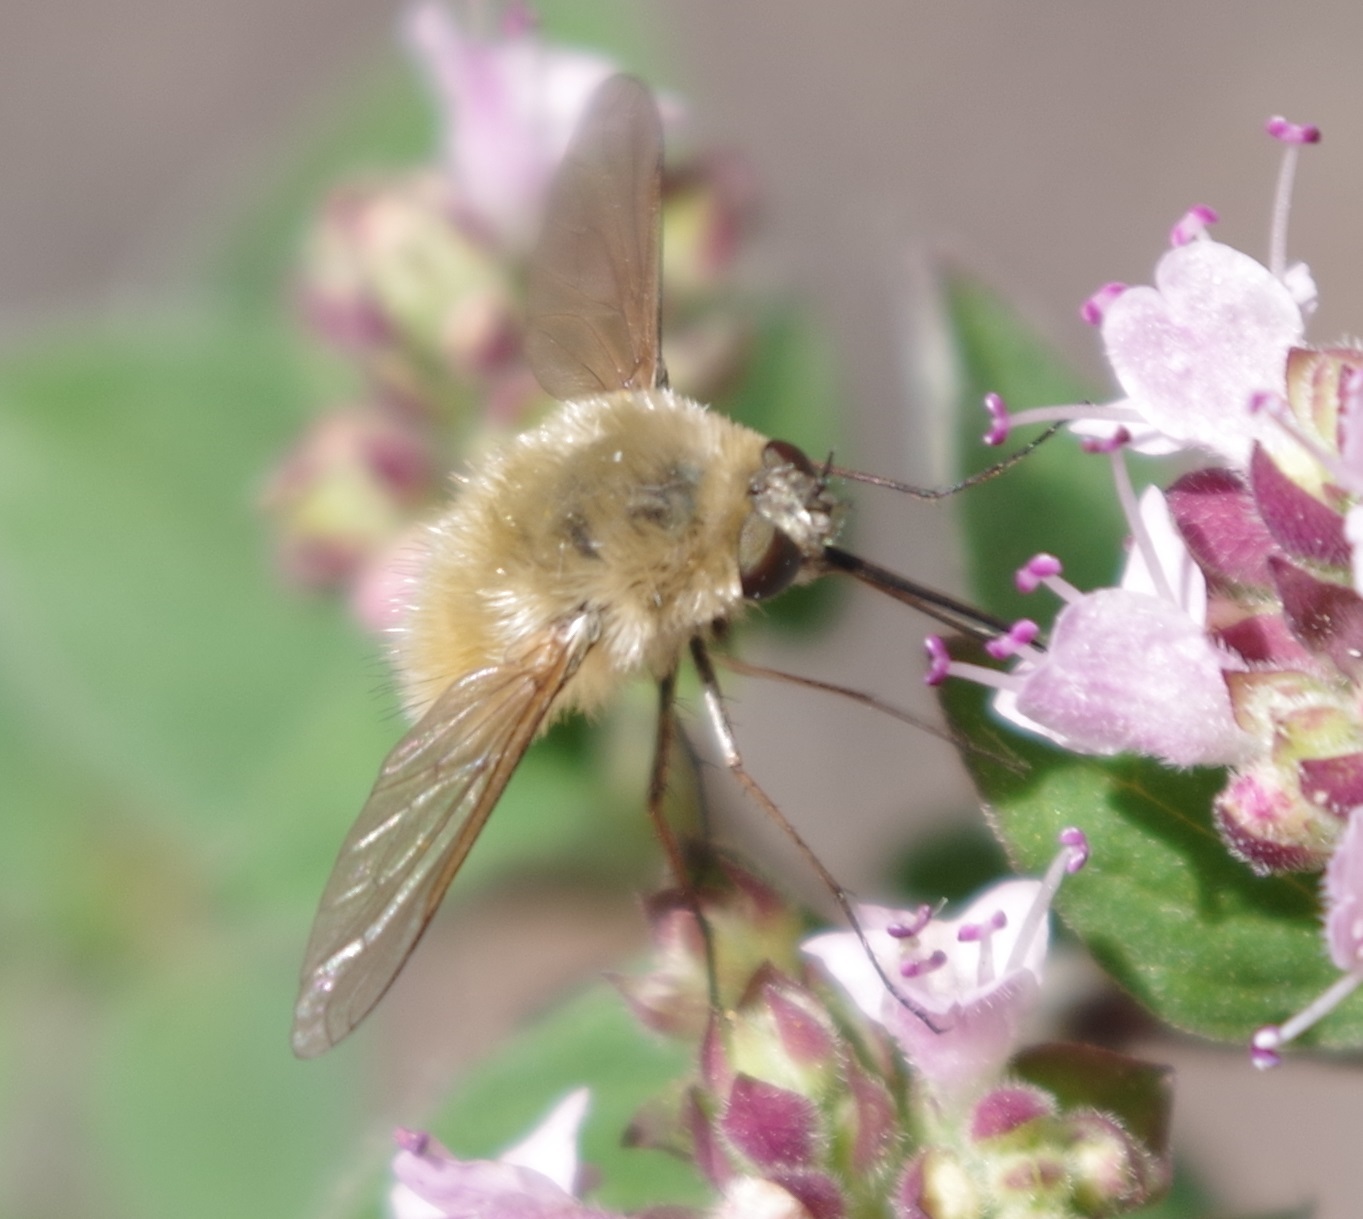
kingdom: Animalia
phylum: Arthropoda
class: Insecta
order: Diptera
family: Bombyliidae
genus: Systoechus
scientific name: Systoechus ctenopterus
